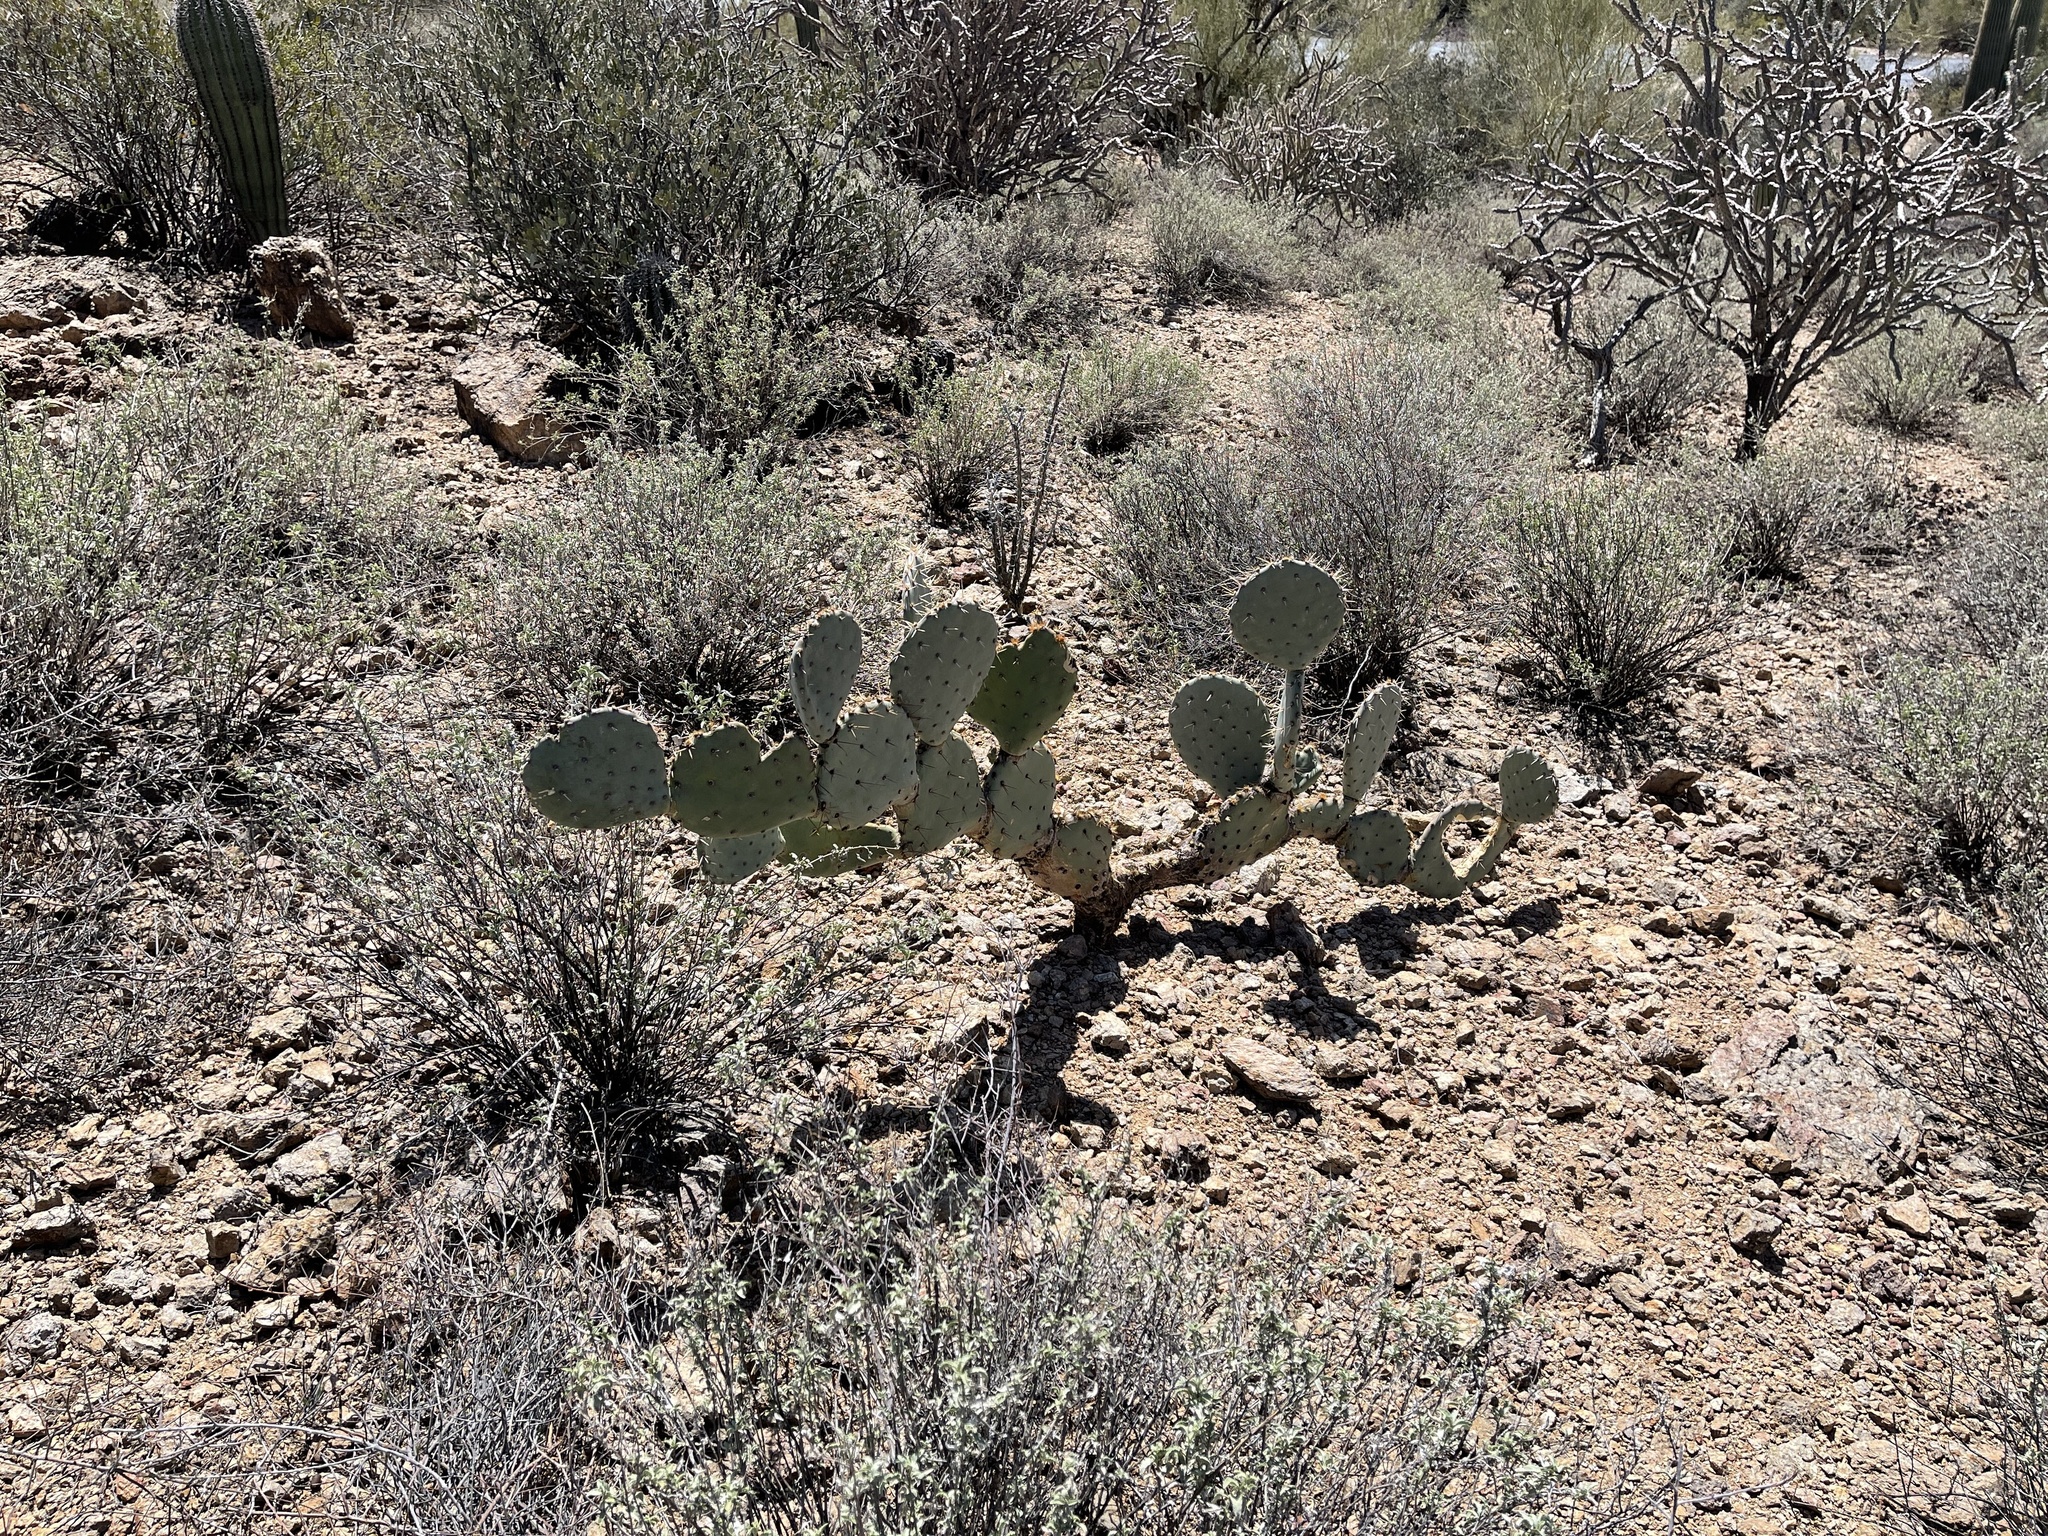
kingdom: Plantae
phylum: Tracheophyta
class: Magnoliopsida
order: Caryophyllales
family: Cactaceae
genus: Opuntia
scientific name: Opuntia engelmannii
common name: Cactus-apple
